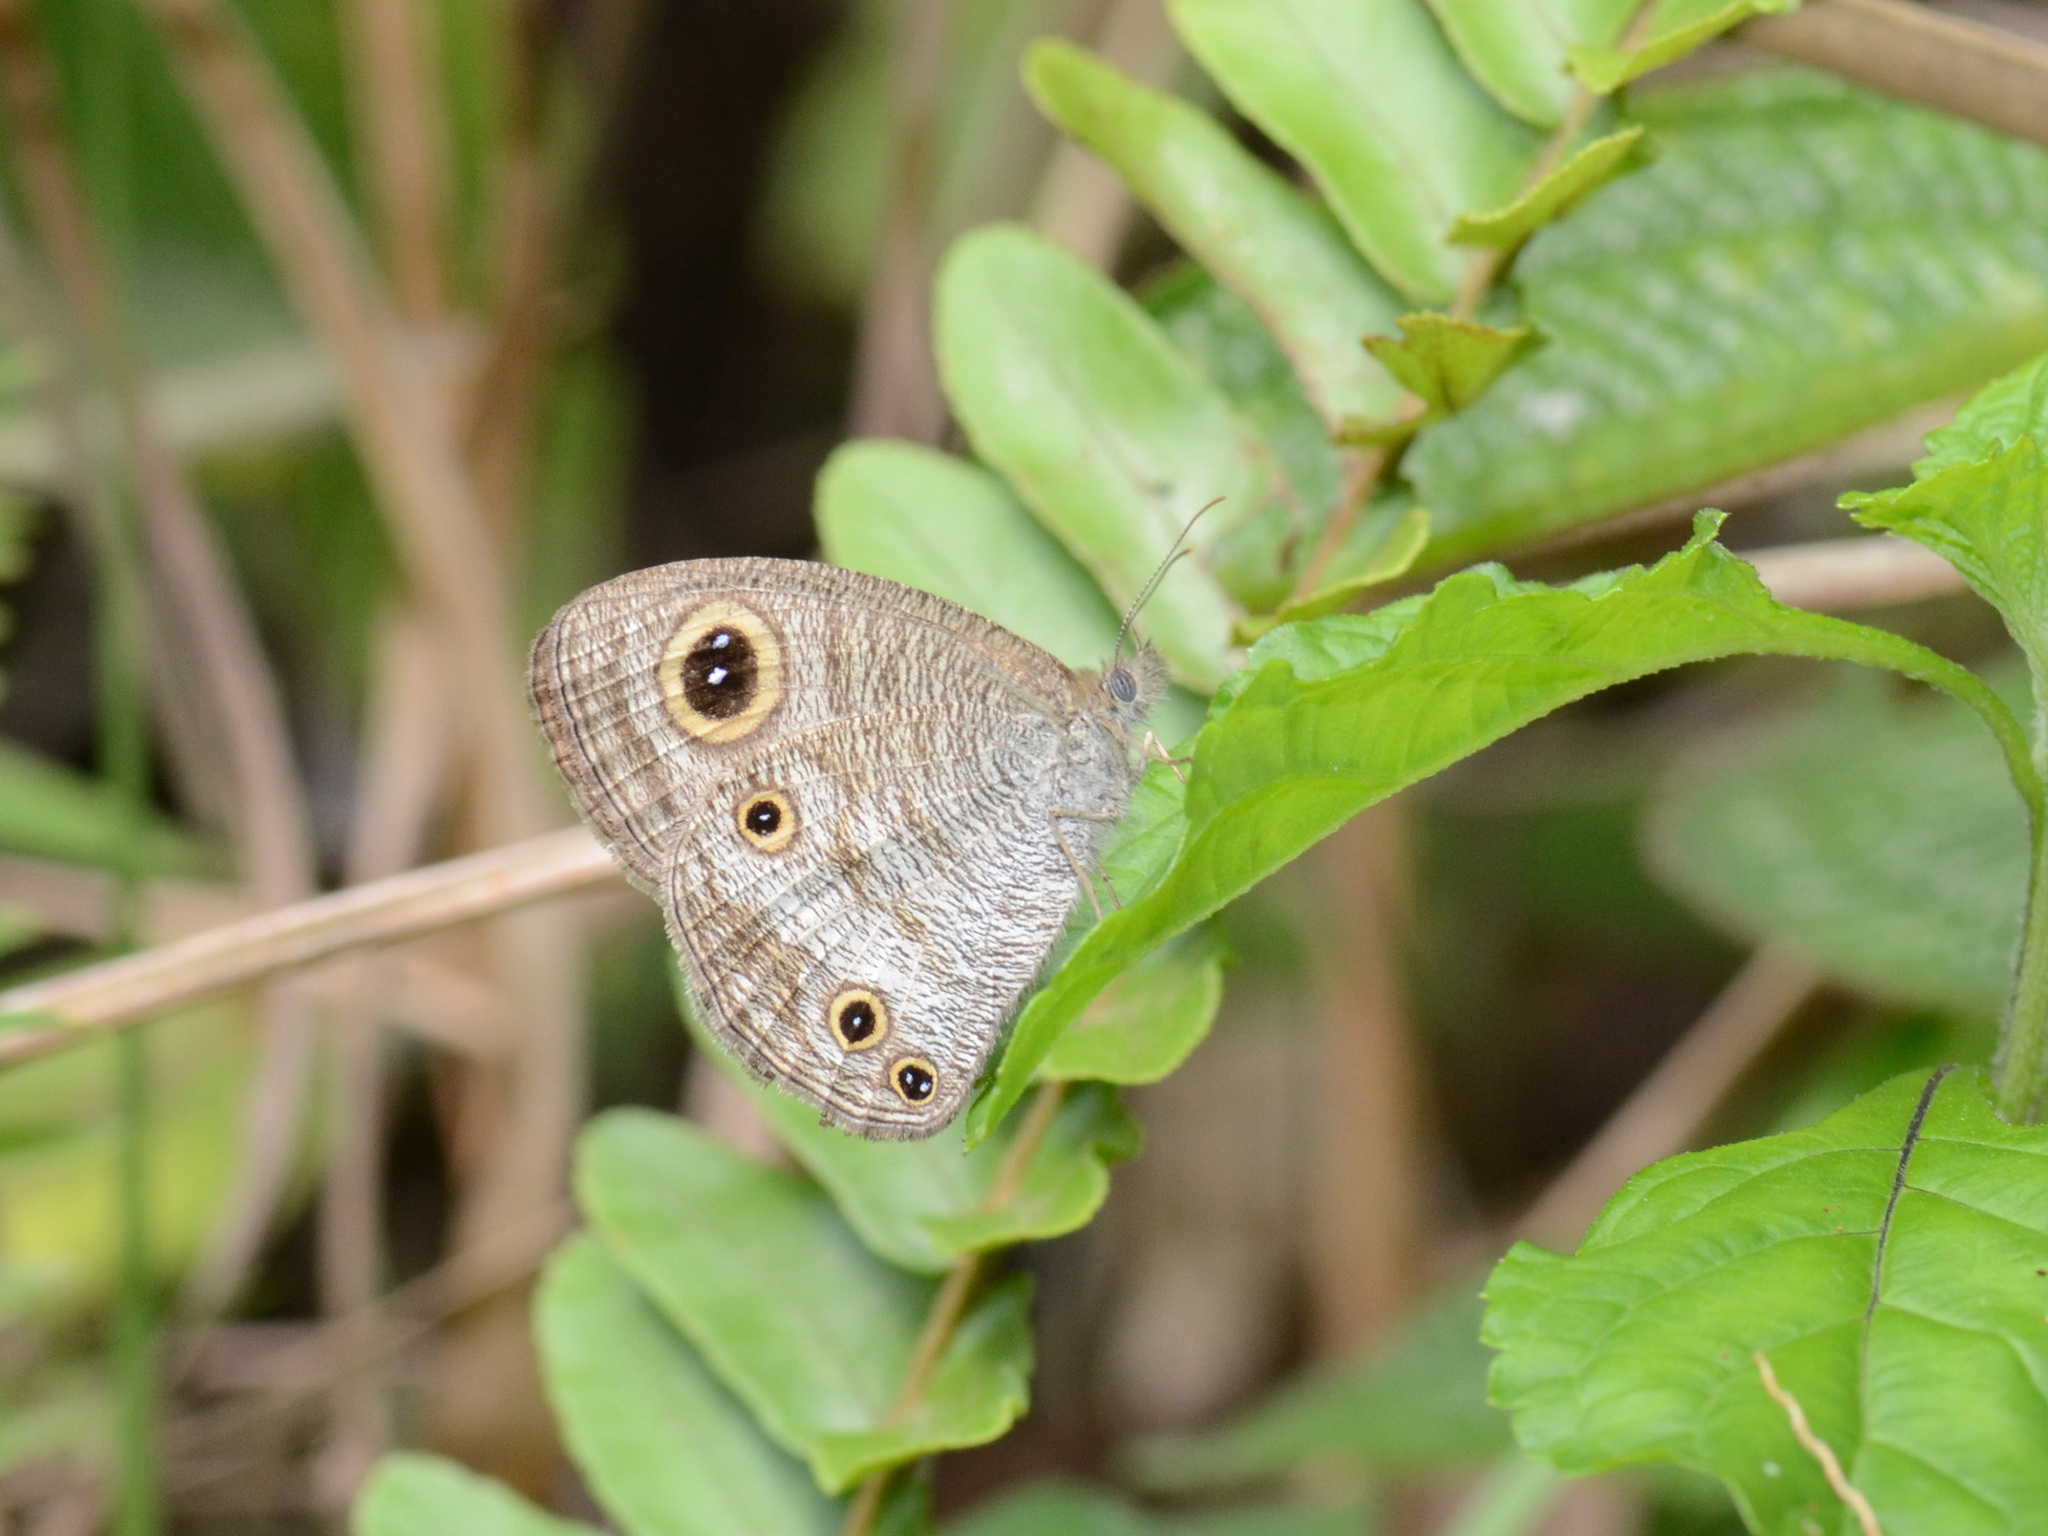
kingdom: Animalia
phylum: Arthropoda
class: Insecta
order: Lepidoptera
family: Nymphalidae
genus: Ypthima
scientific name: Ypthima pandocus
